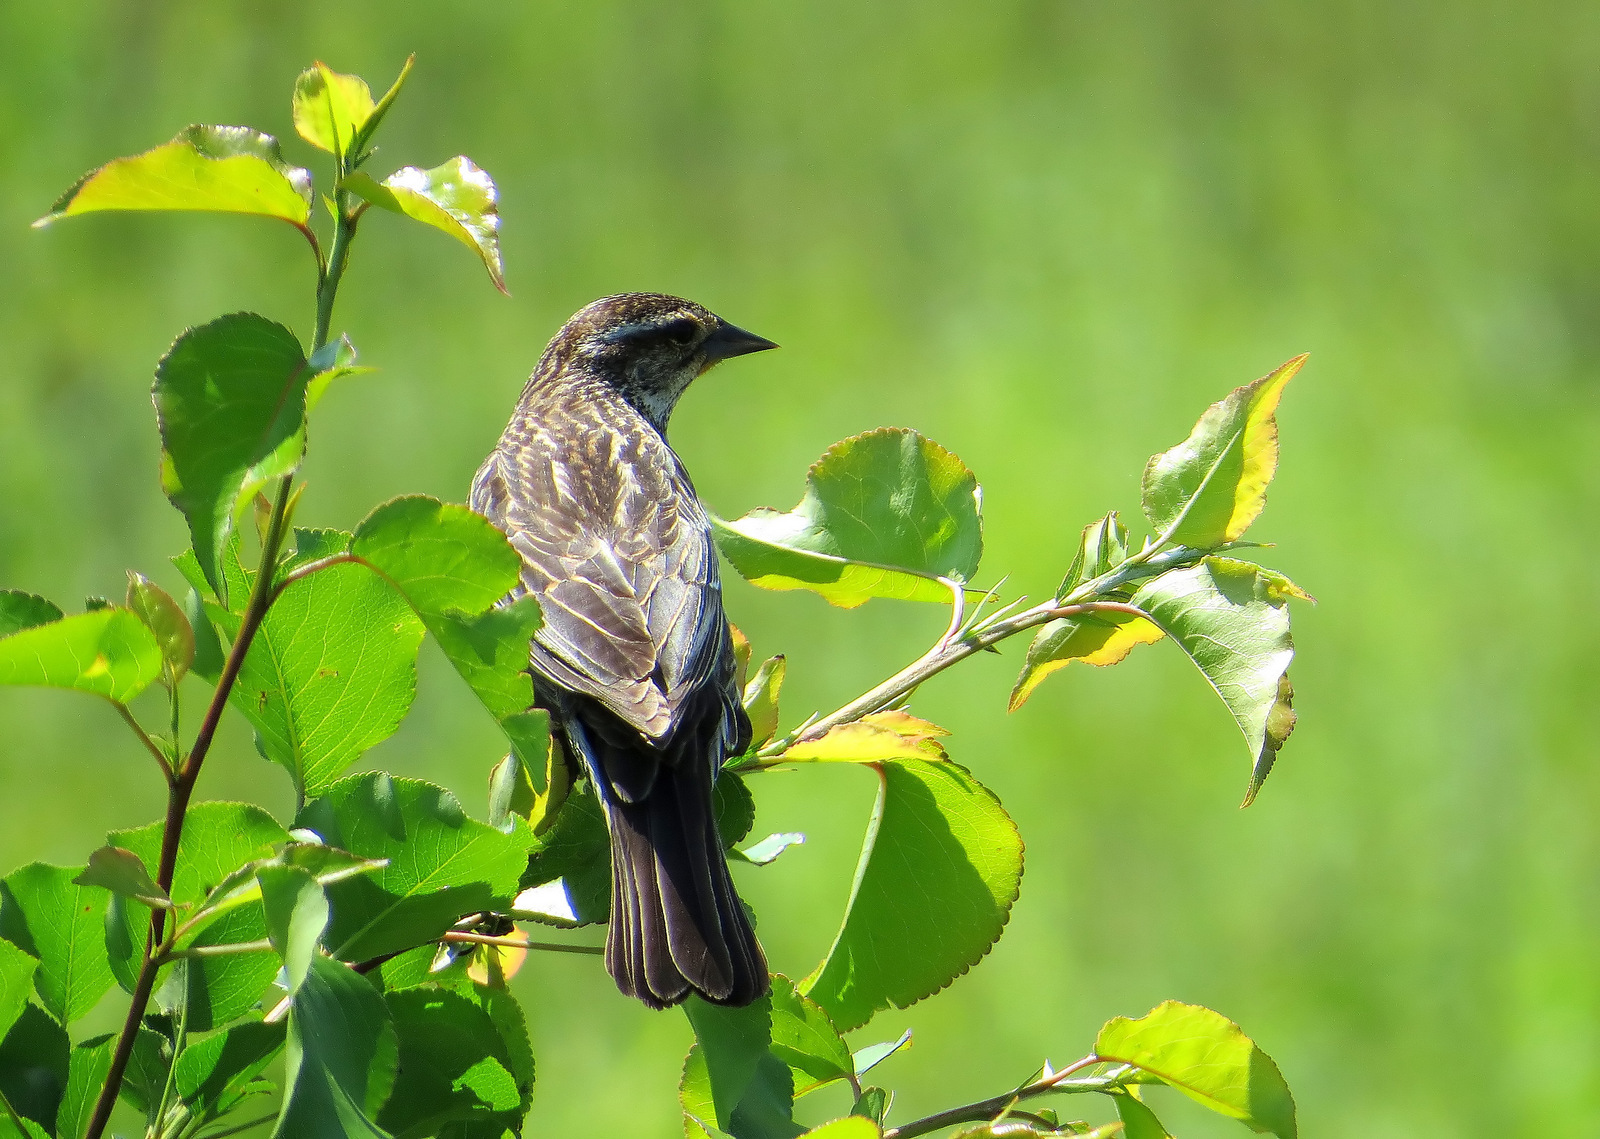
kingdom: Animalia
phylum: Chordata
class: Aves
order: Passeriformes
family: Icteridae
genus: Agelaius
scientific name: Agelaius phoeniceus
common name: Red-winged blackbird
